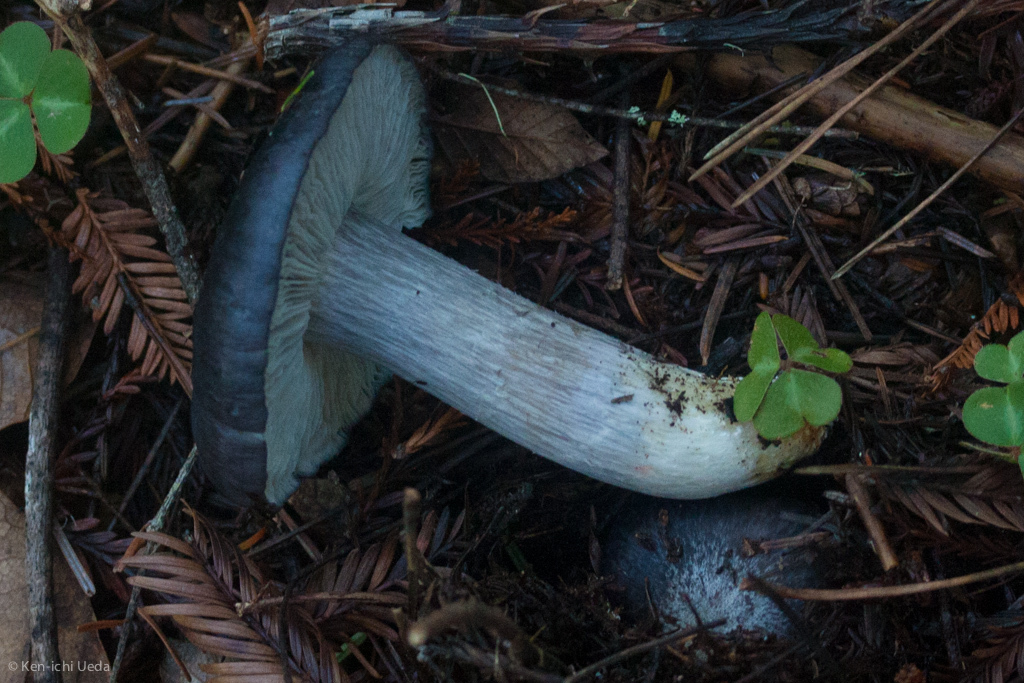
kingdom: Fungi
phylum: Basidiomycota
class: Agaricomycetes
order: Agaricales
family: Entolomataceae
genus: Entoloma
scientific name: Entoloma medianox
